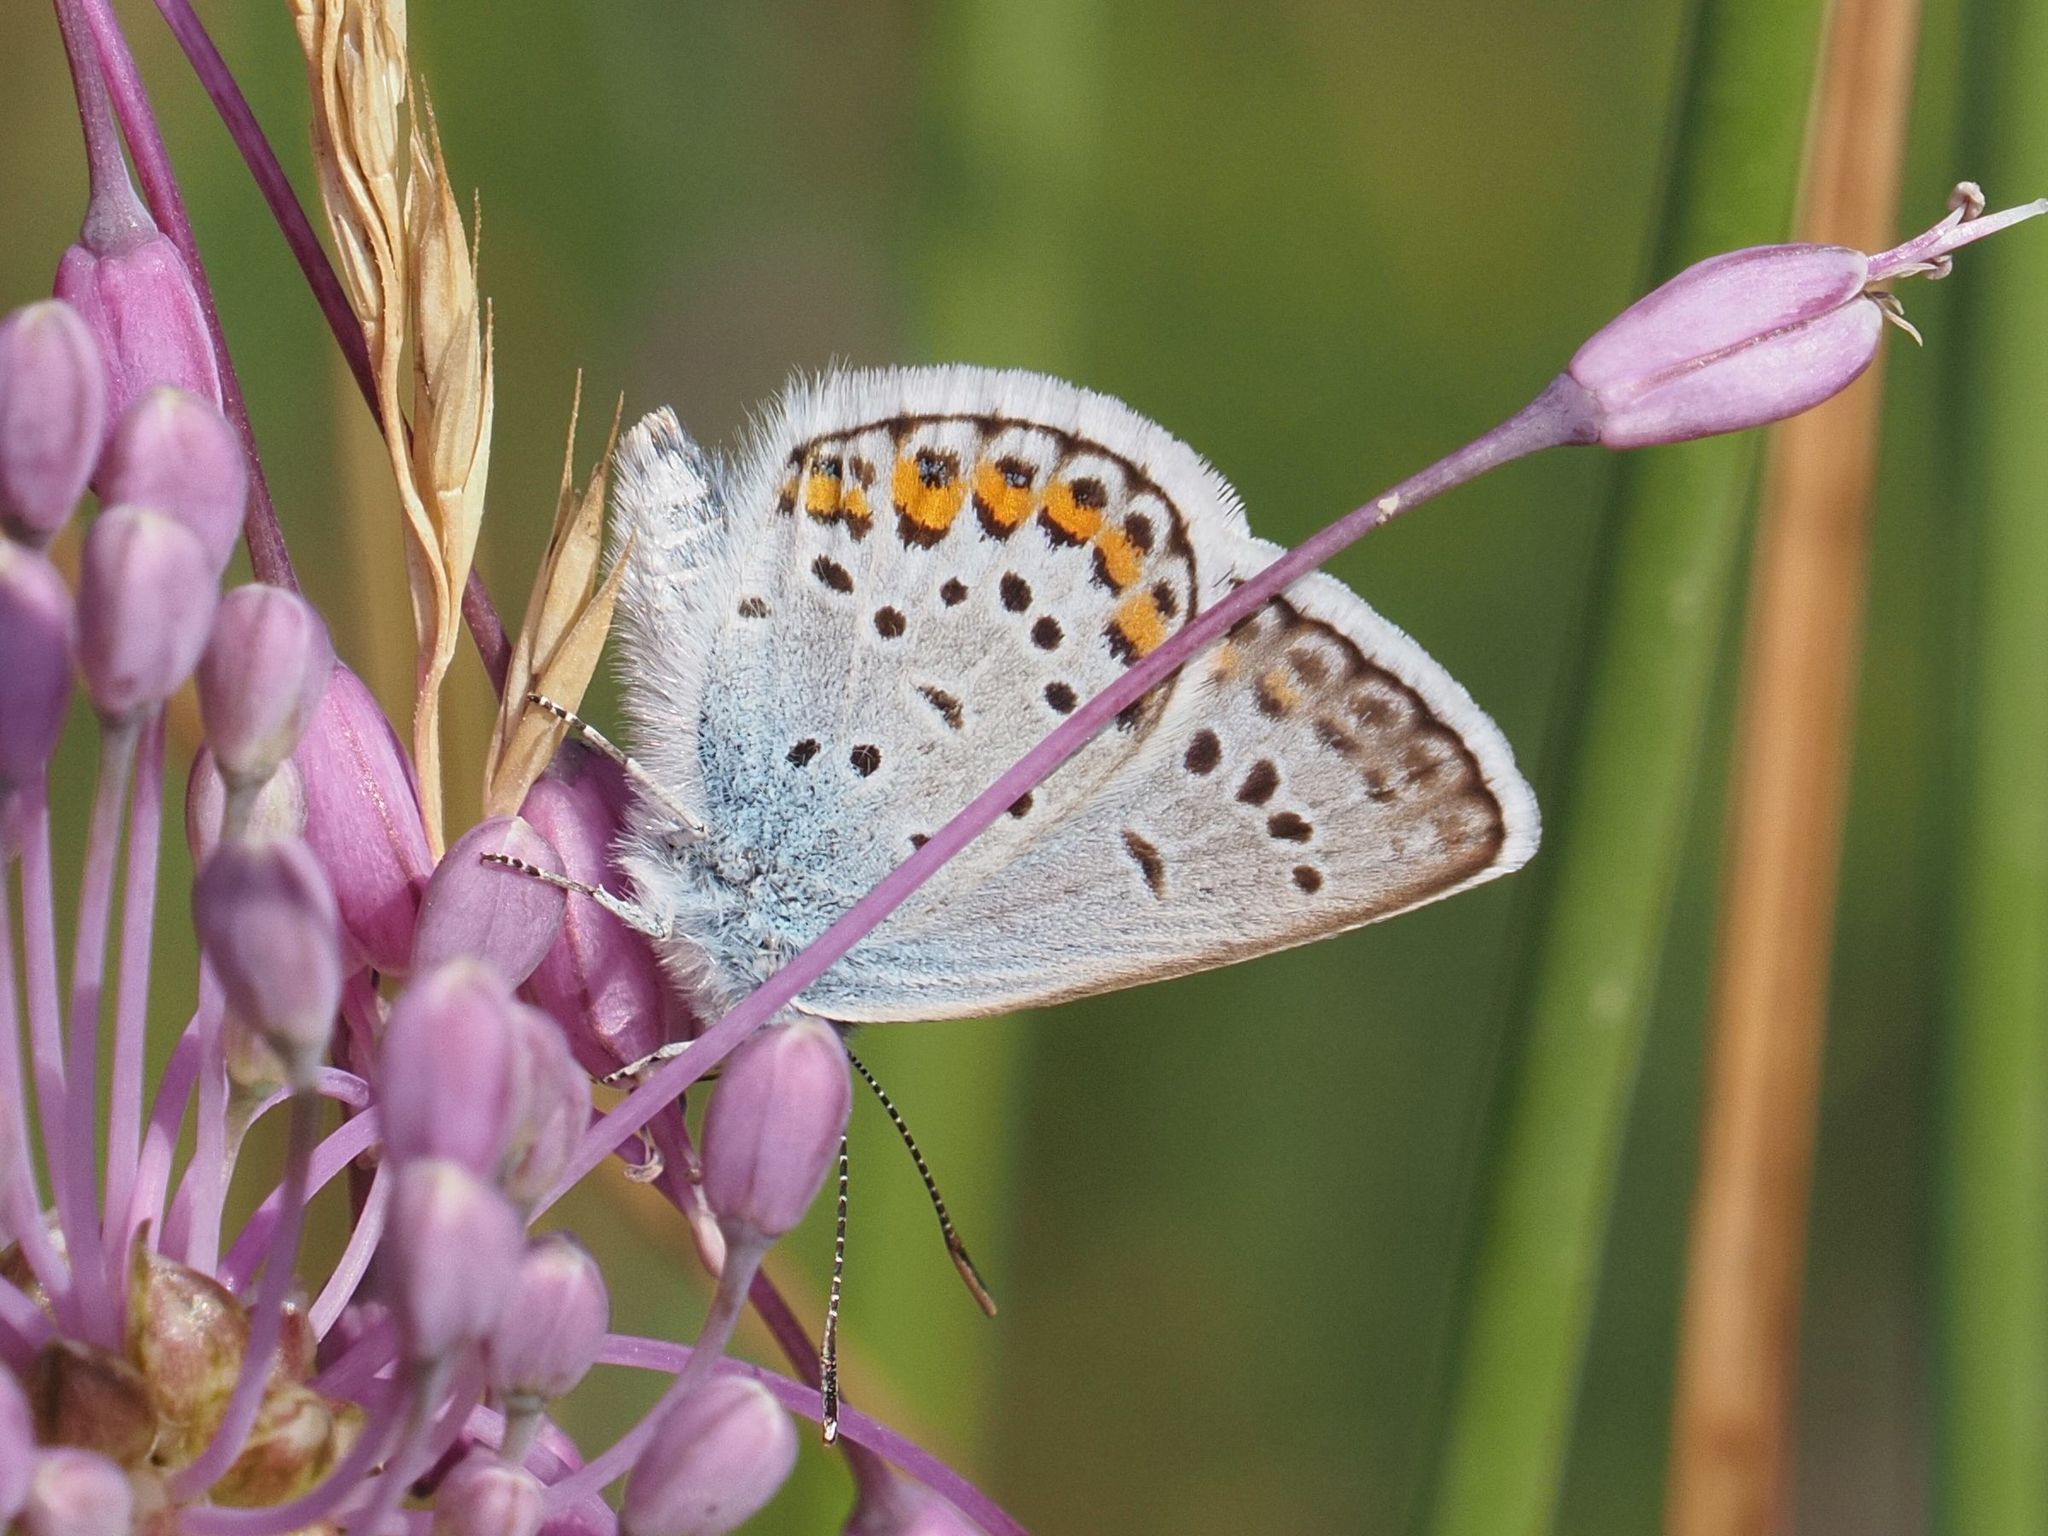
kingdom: Animalia
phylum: Arthropoda
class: Insecta
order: Lepidoptera
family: Lycaenidae
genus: Plebejus
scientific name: Plebejus argus
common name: Silver-studded blue
